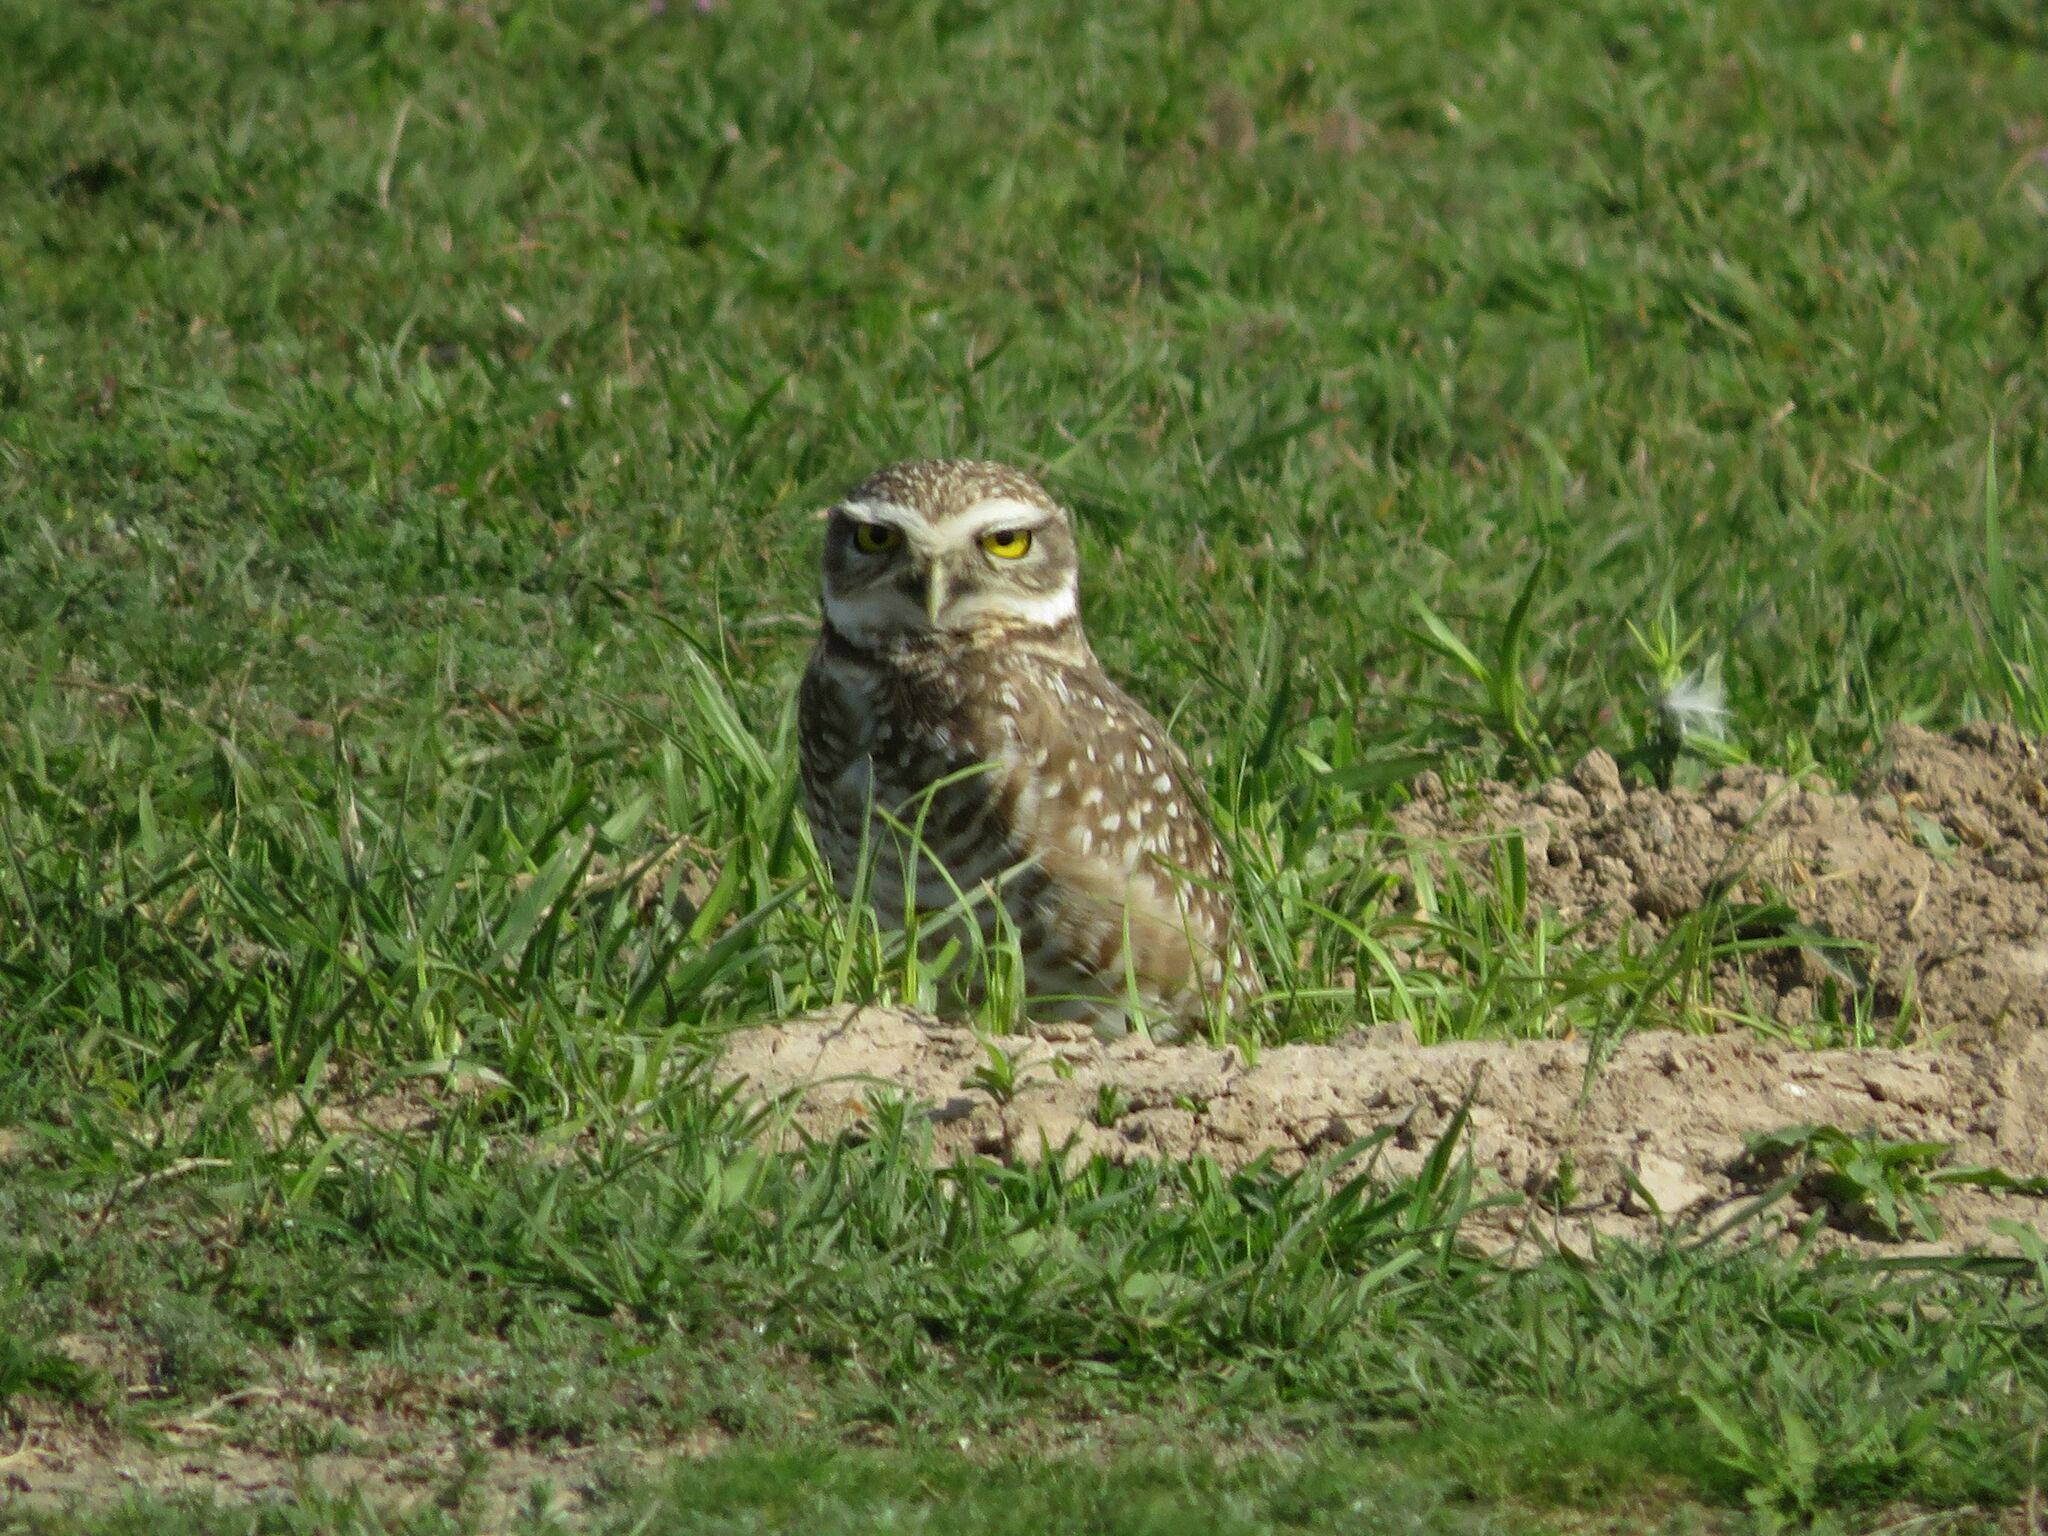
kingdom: Animalia
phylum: Chordata
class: Aves
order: Strigiformes
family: Strigidae
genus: Athene
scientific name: Athene cunicularia
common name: Burrowing owl
